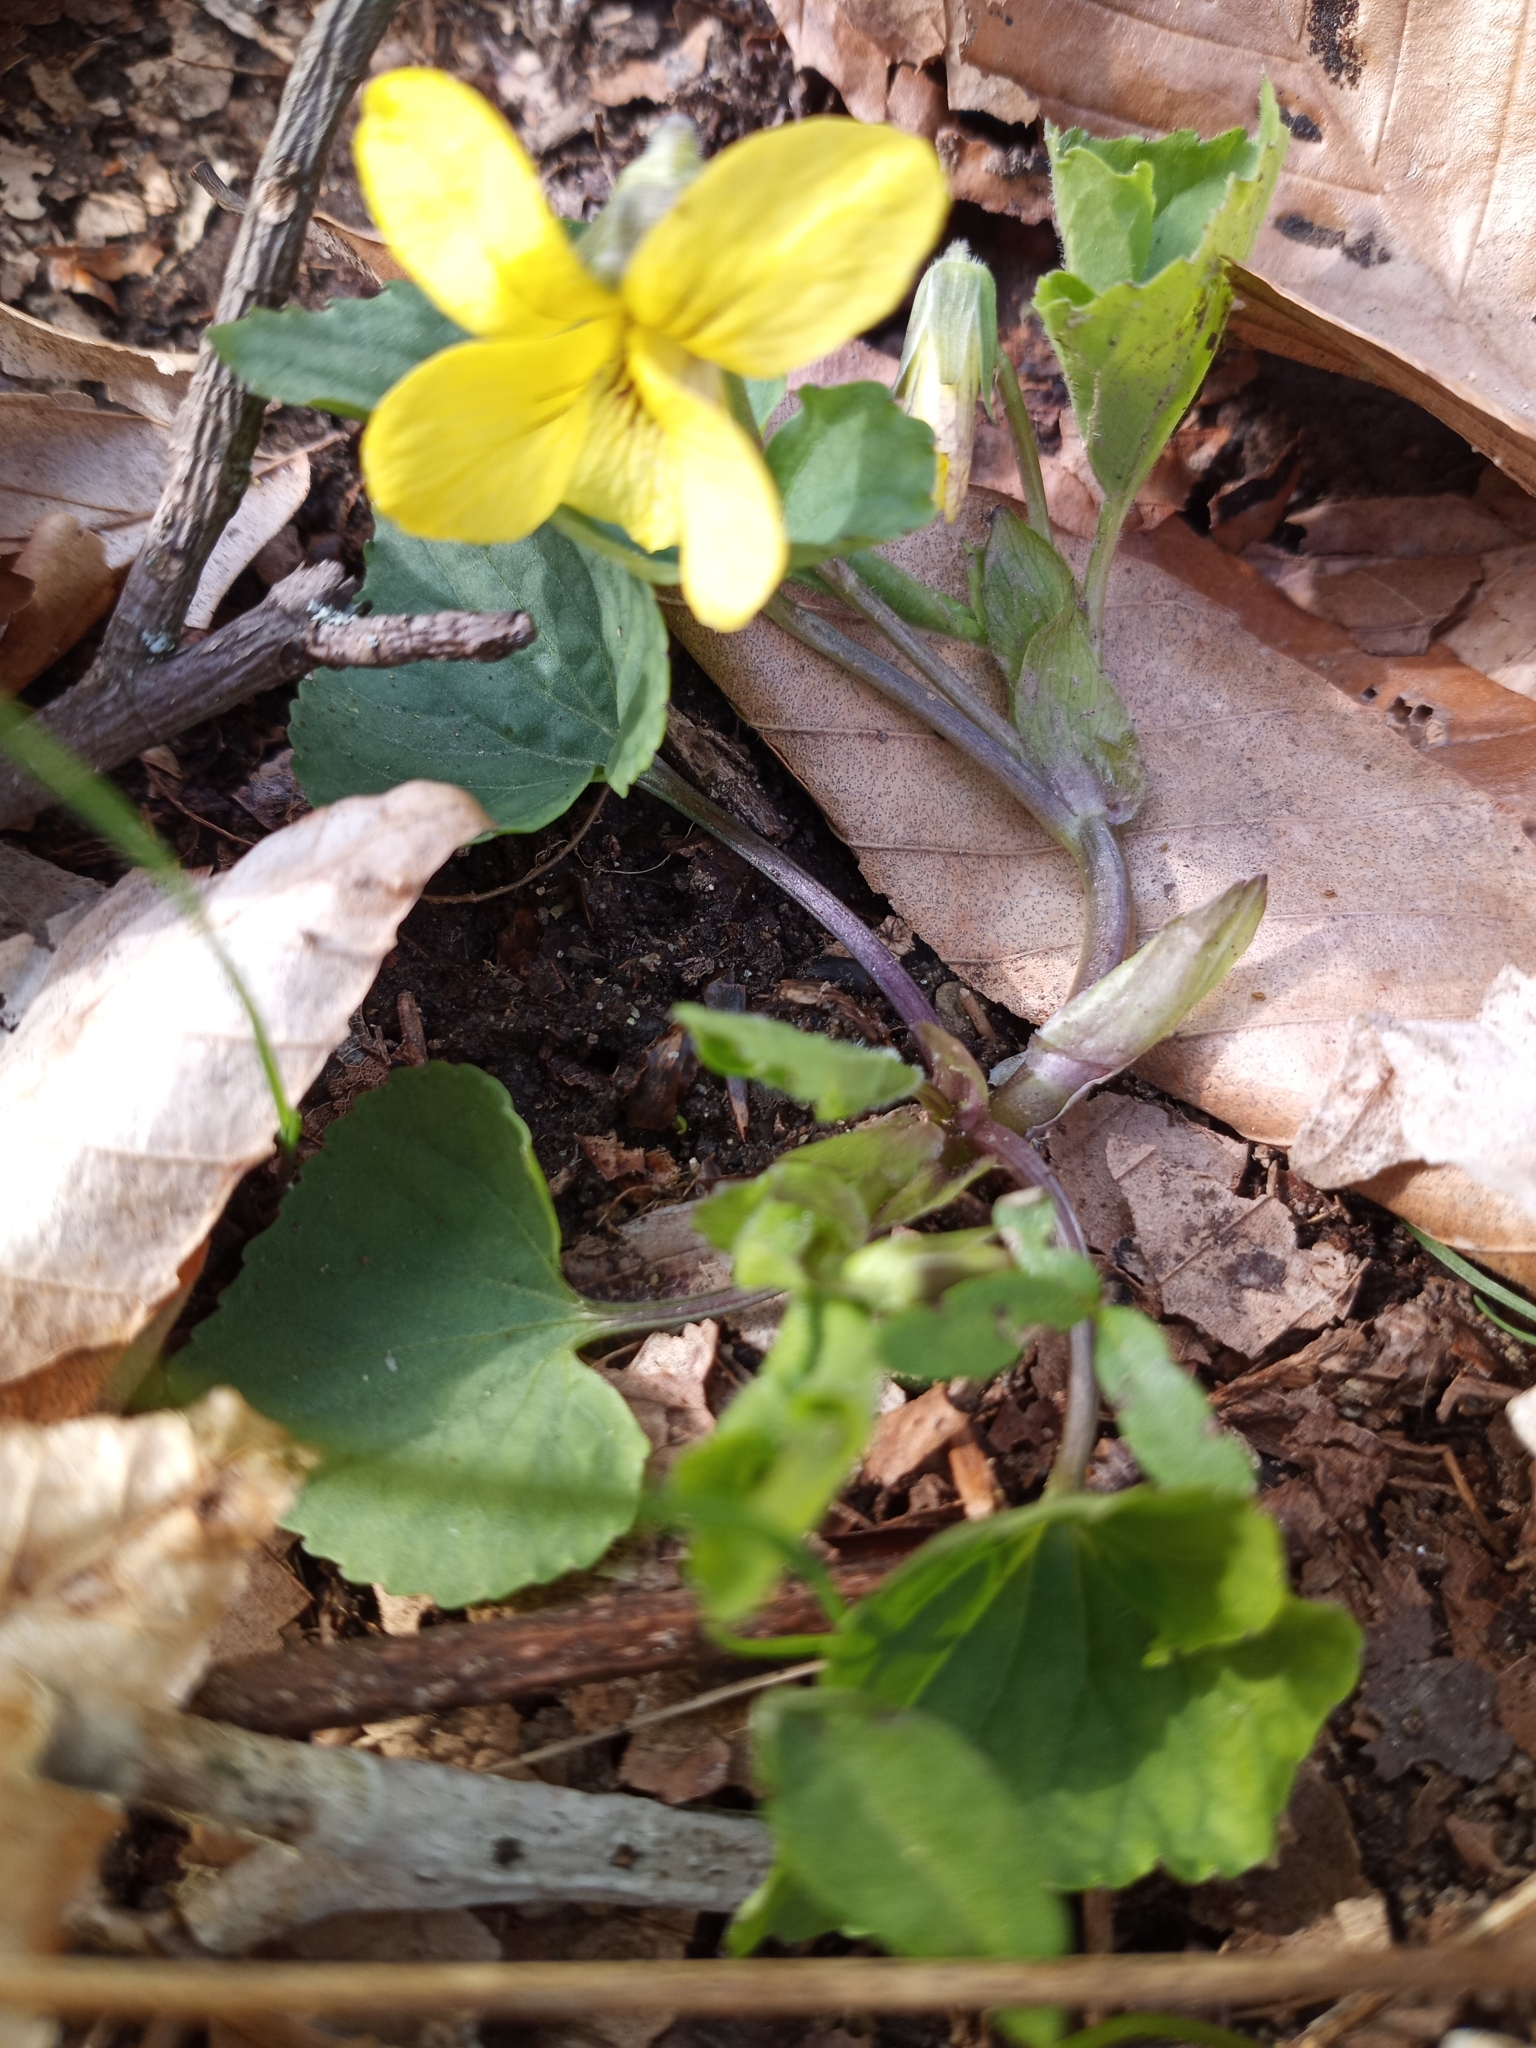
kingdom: Plantae
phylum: Tracheophyta
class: Magnoliopsida
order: Malpighiales
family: Violaceae
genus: Viola
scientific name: Viola eriocarpa
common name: Smooth yellow violet
